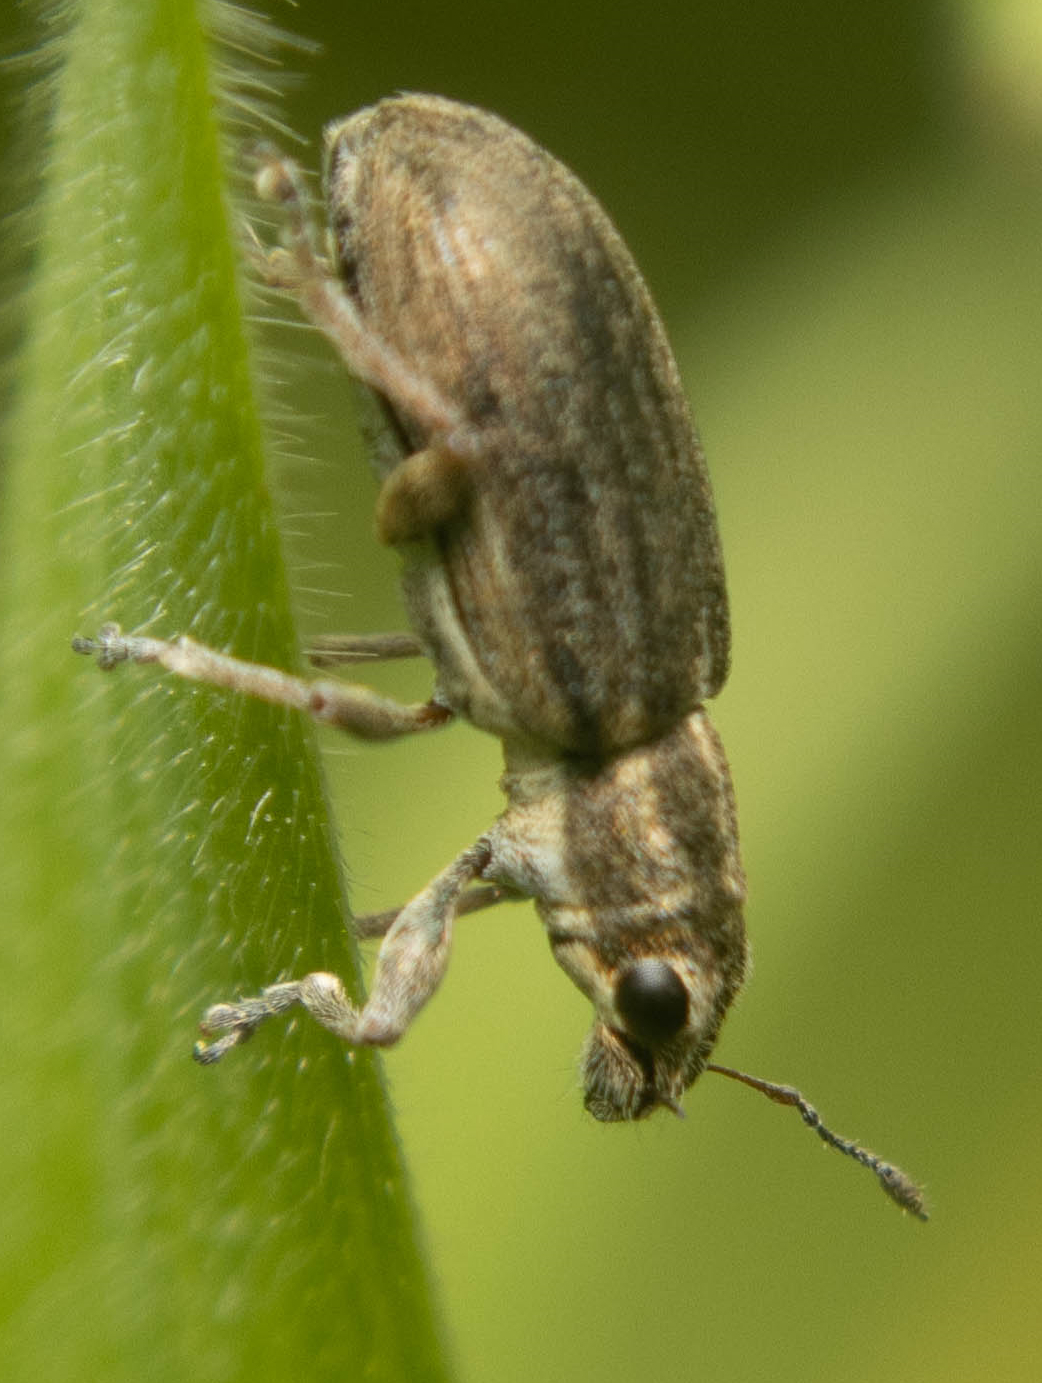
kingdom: Animalia
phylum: Arthropoda
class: Insecta
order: Coleoptera
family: Curculionidae
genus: Sitona
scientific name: Sitona lineatus
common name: Weevil
